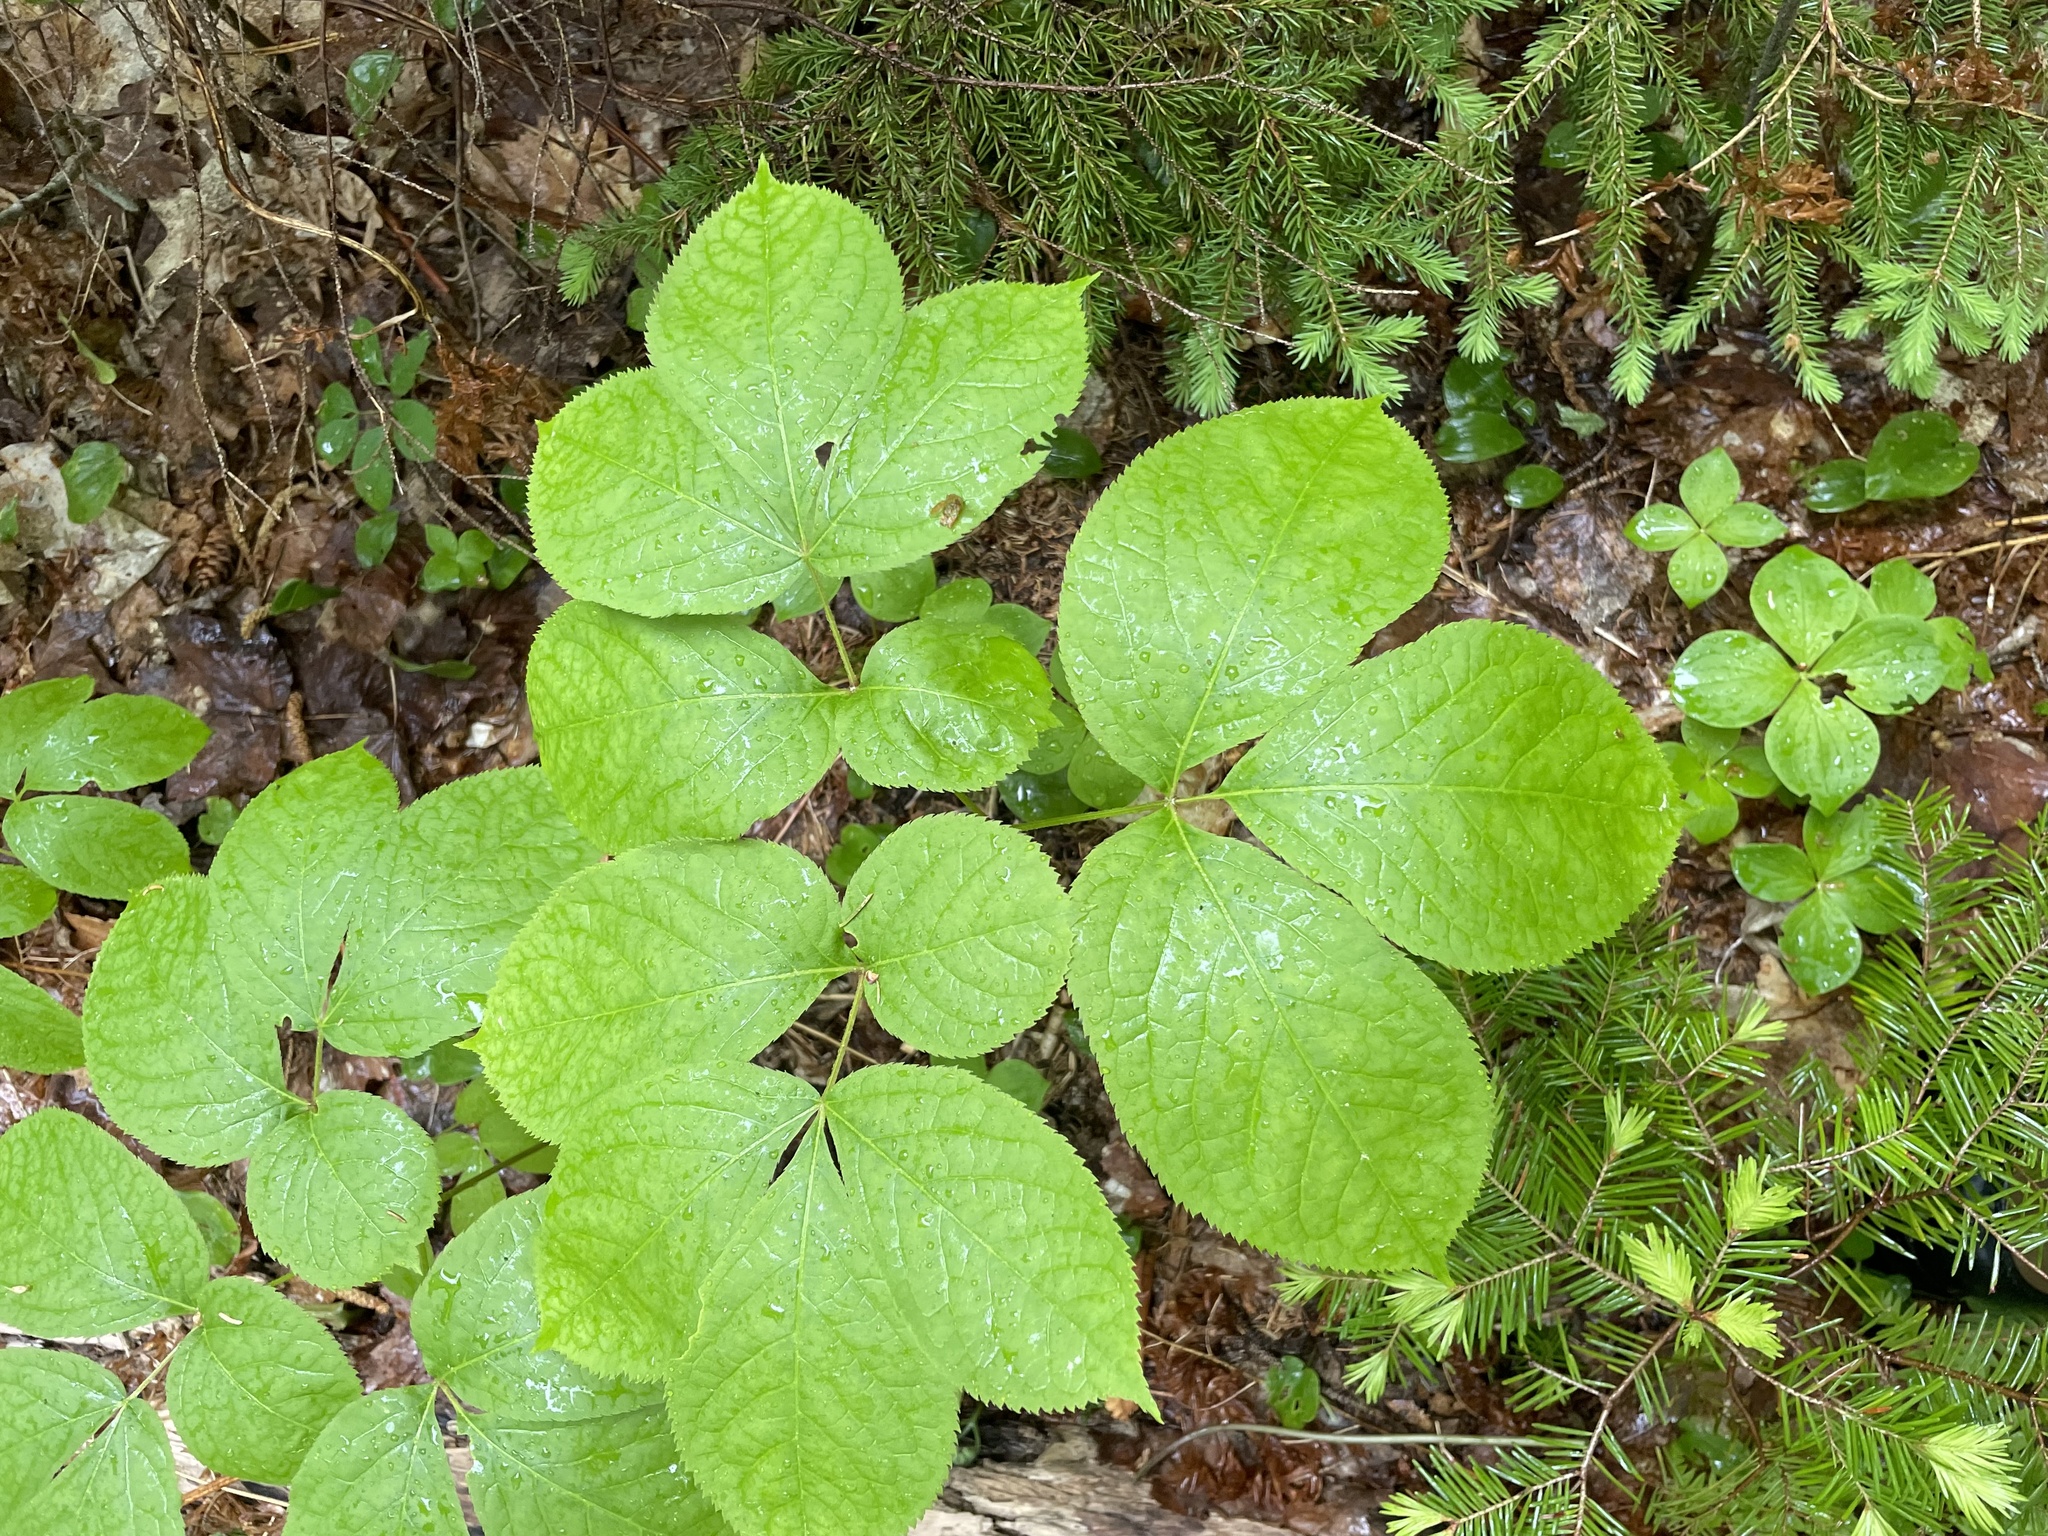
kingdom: Plantae
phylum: Tracheophyta
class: Magnoliopsida
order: Apiales
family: Araliaceae
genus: Aralia
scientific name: Aralia nudicaulis
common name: Wild sarsaparilla
